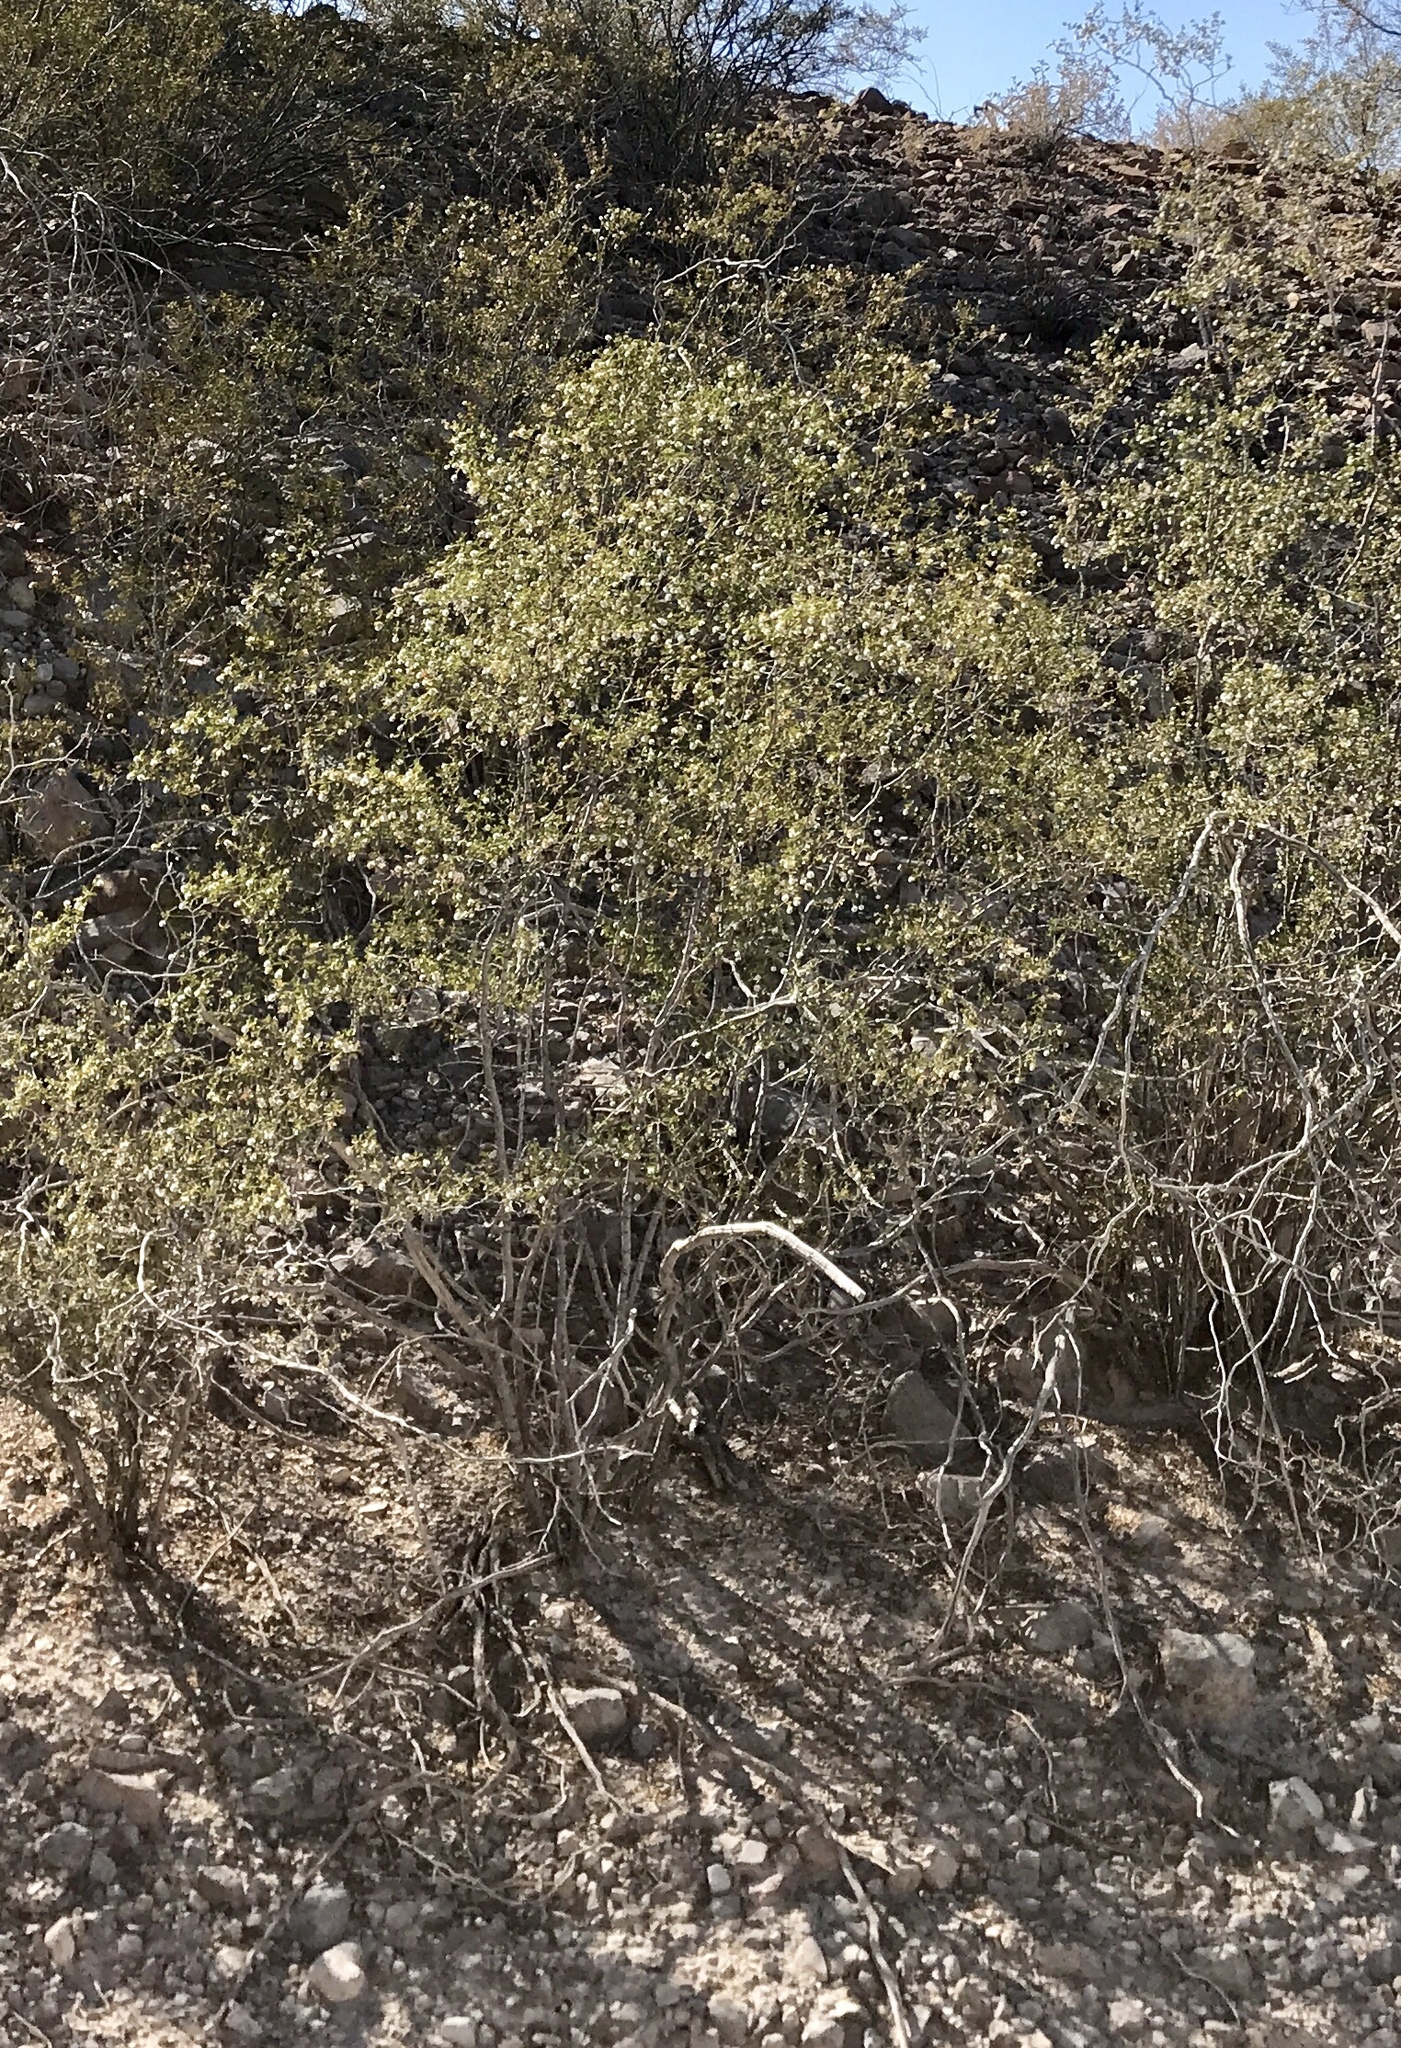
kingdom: Plantae
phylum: Tracheophyta
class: Magnoliopsida
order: Zygophyllales
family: Zygophyllaceae
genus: Larrea
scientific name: Larrea tridentata
